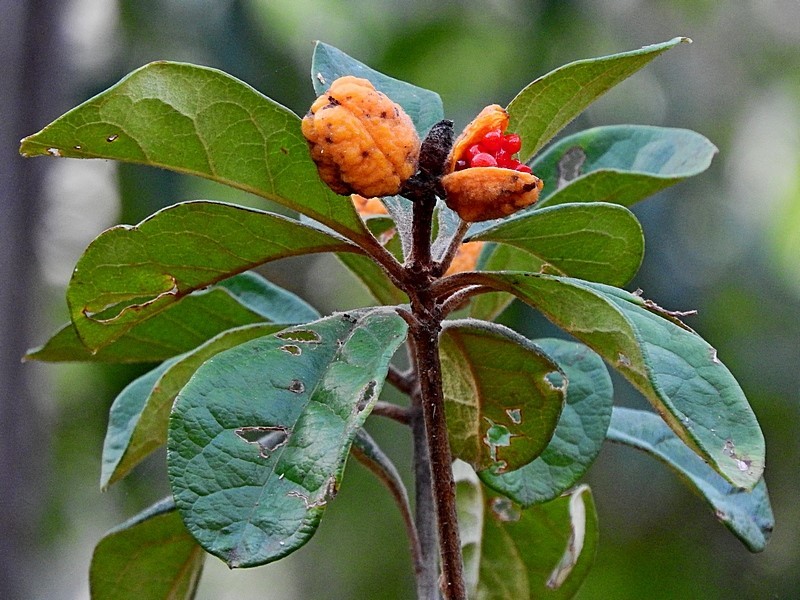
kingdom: Plantae
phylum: Tracheophyta
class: Magnoliopsida
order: Apiales
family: Pittosporaceae
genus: Pittosporum
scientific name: Pittosporum revolutum
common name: Brisbane-laurel
